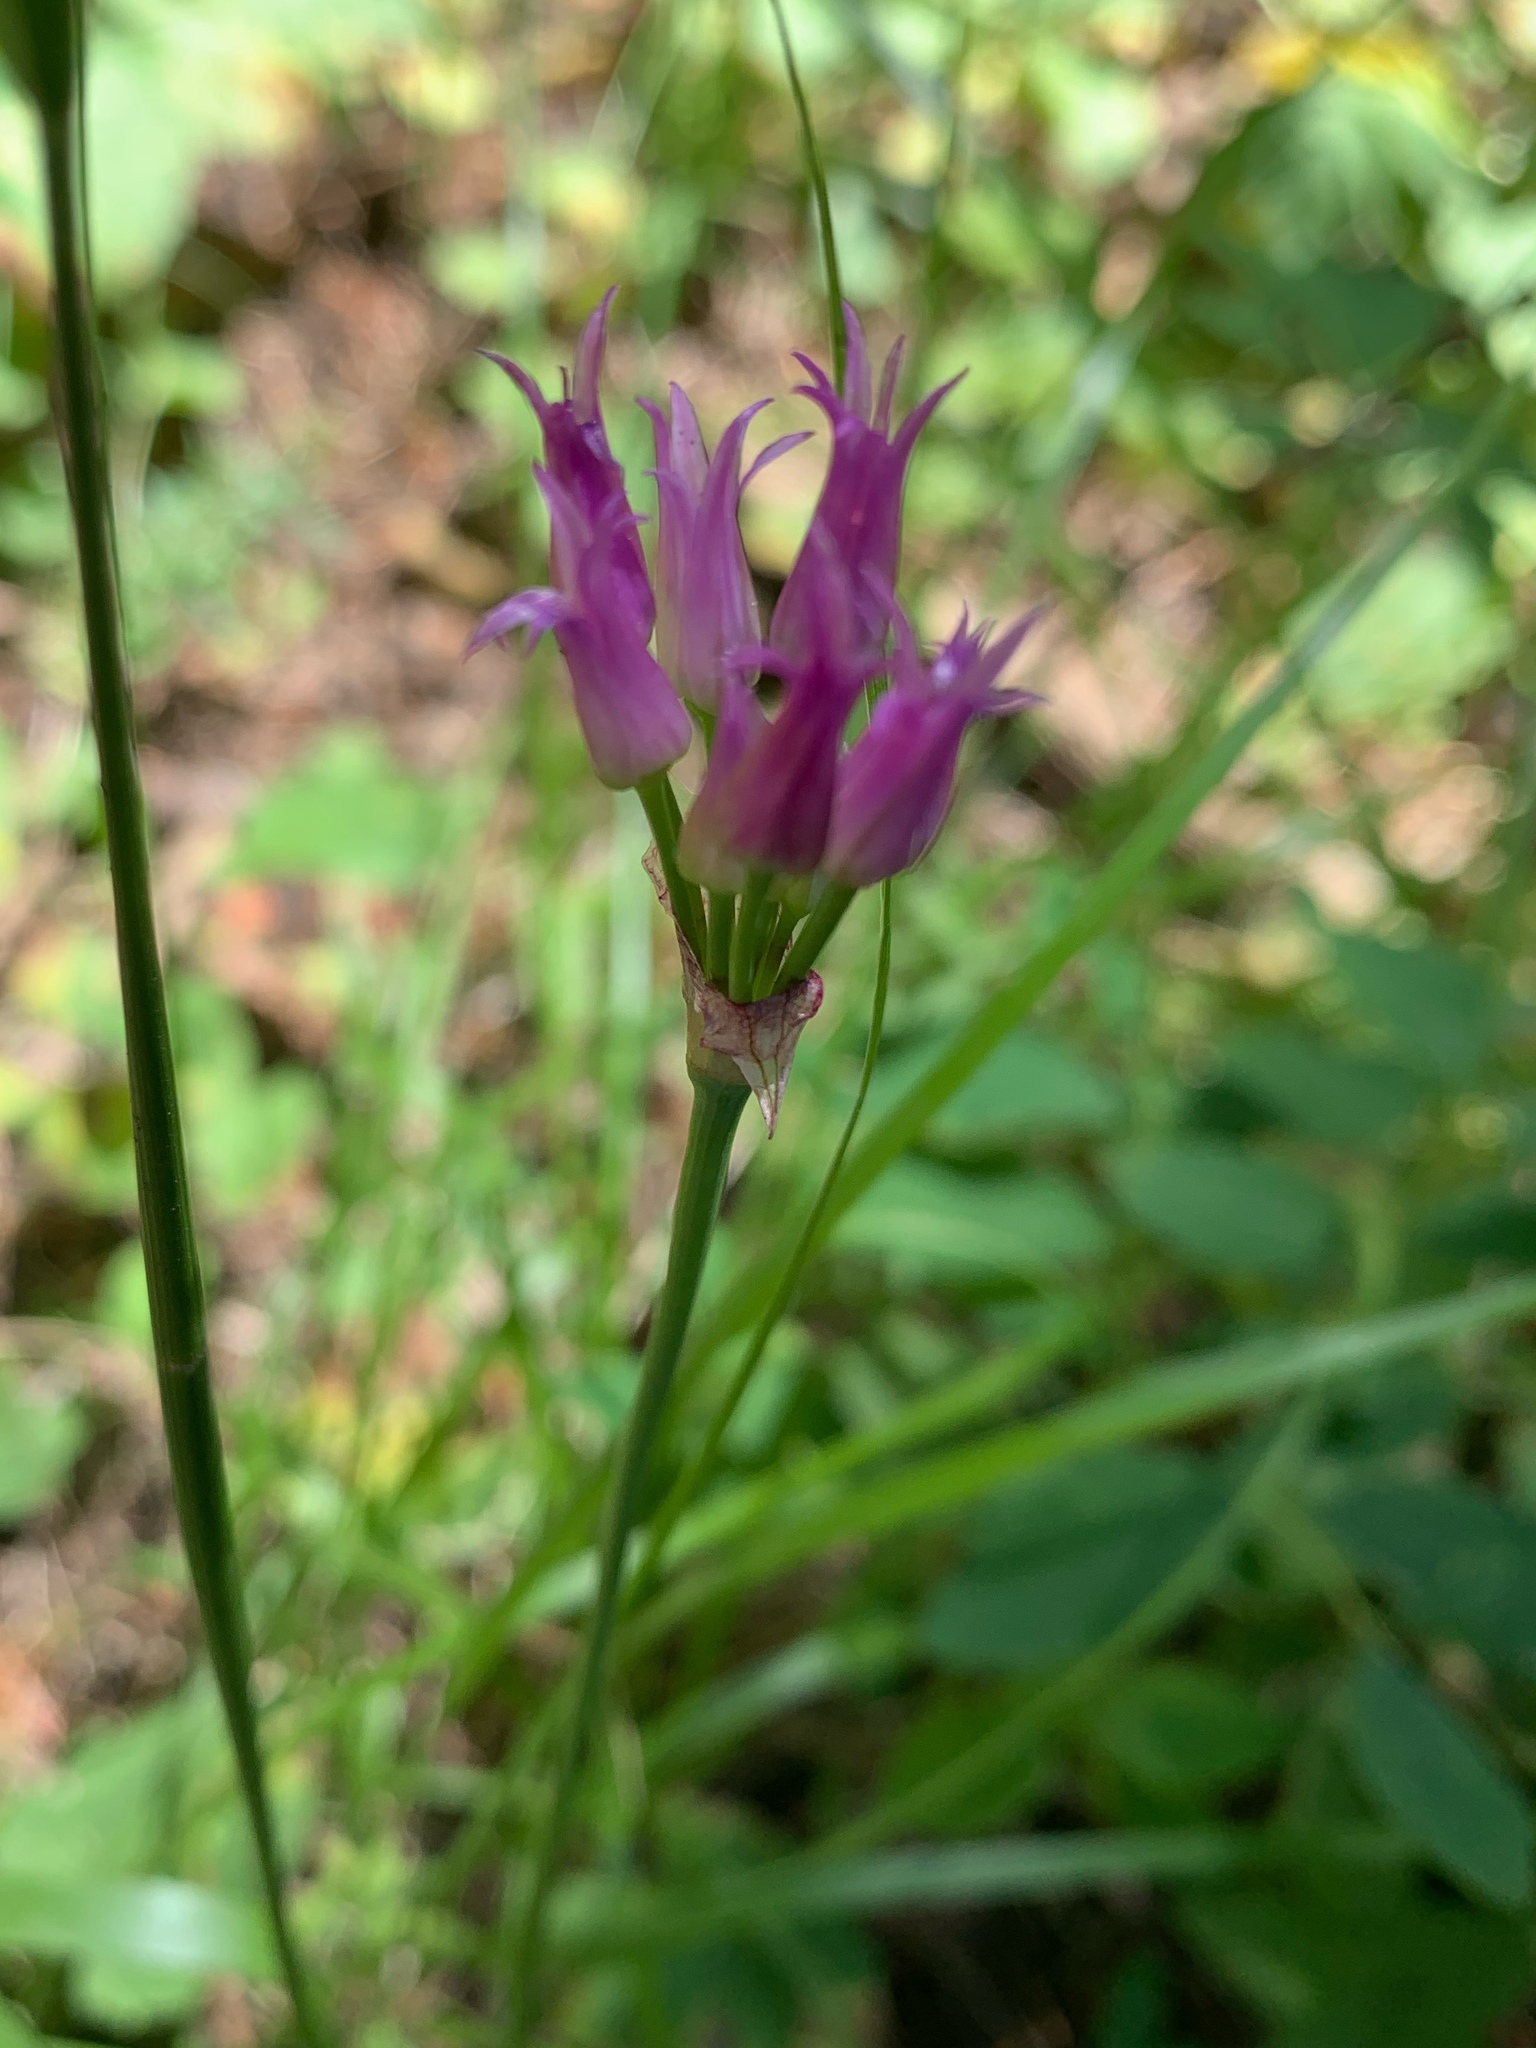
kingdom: Plantae
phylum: Tracheophyta
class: Liliopsida
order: Asparagales
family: Amaryllidaceae
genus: Allium
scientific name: Allium brevistylum
